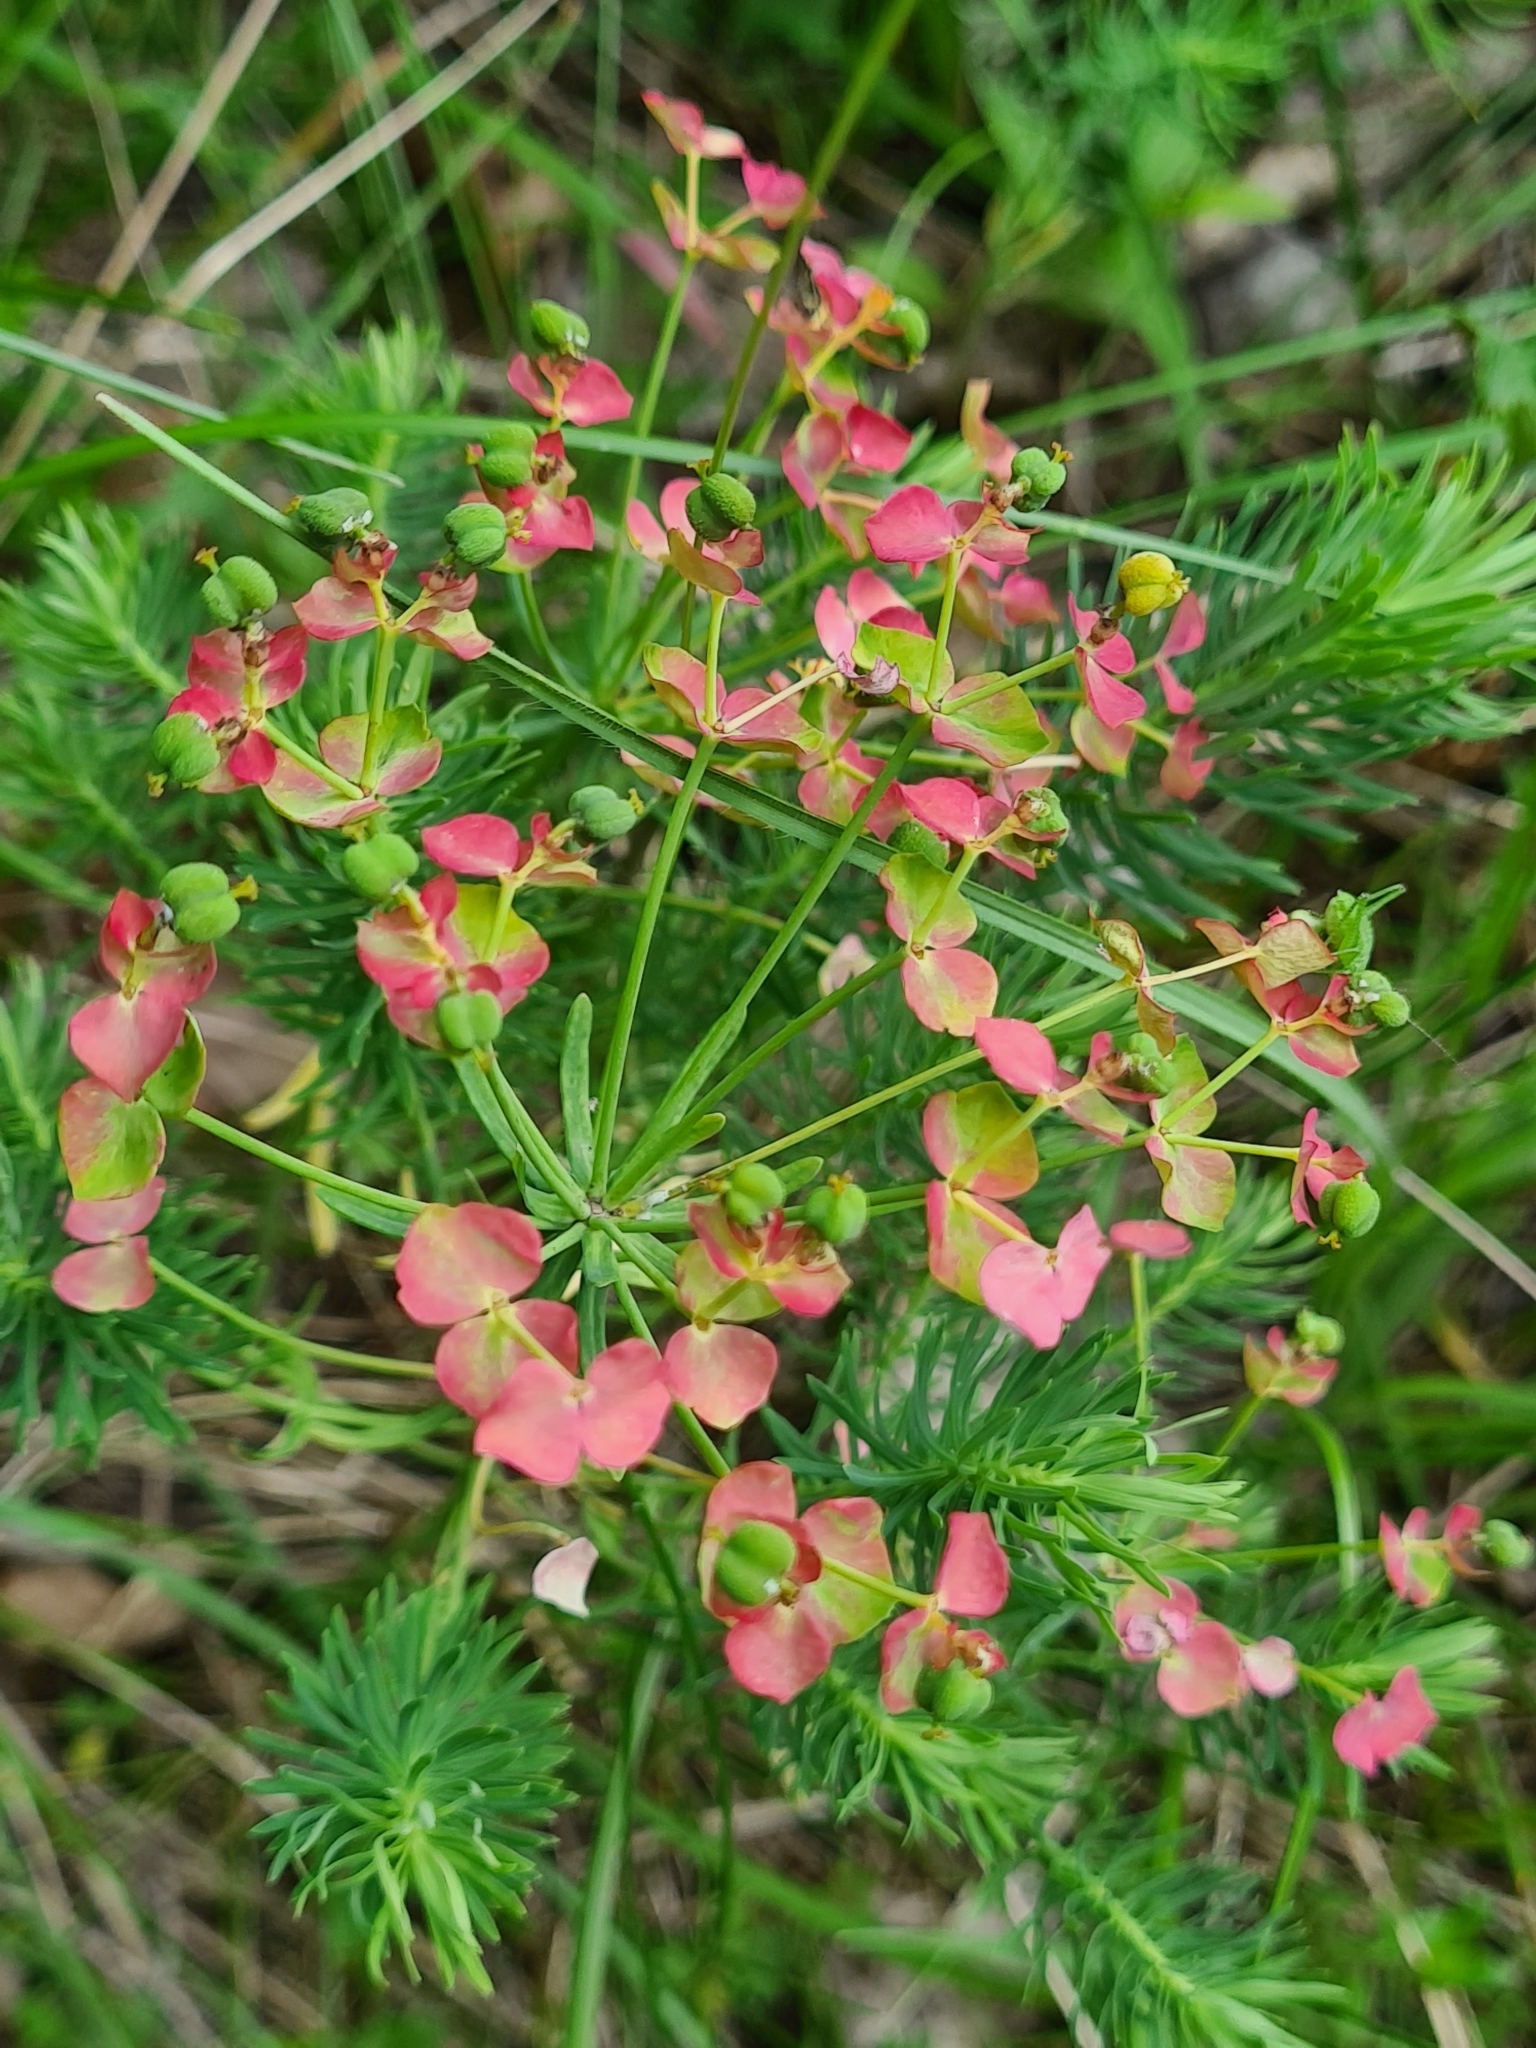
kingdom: Plantae
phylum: Tracheophyta
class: Magnoliopsida
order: Malpighiales
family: Euphorbiaceae
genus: Euphorbia
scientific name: Euphorbia cyparissias
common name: Cypress spurge
